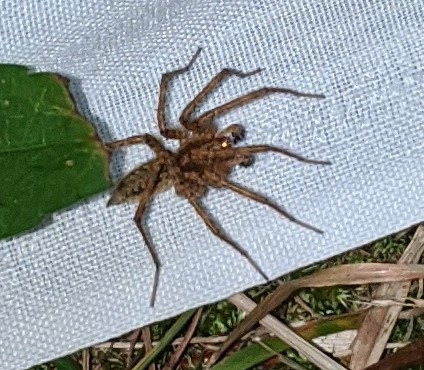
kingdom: Animalia
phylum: Arthropoda
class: Arachnida
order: Araneae
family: Agelenidae
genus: Agelenopsis
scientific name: Agelenopsis
